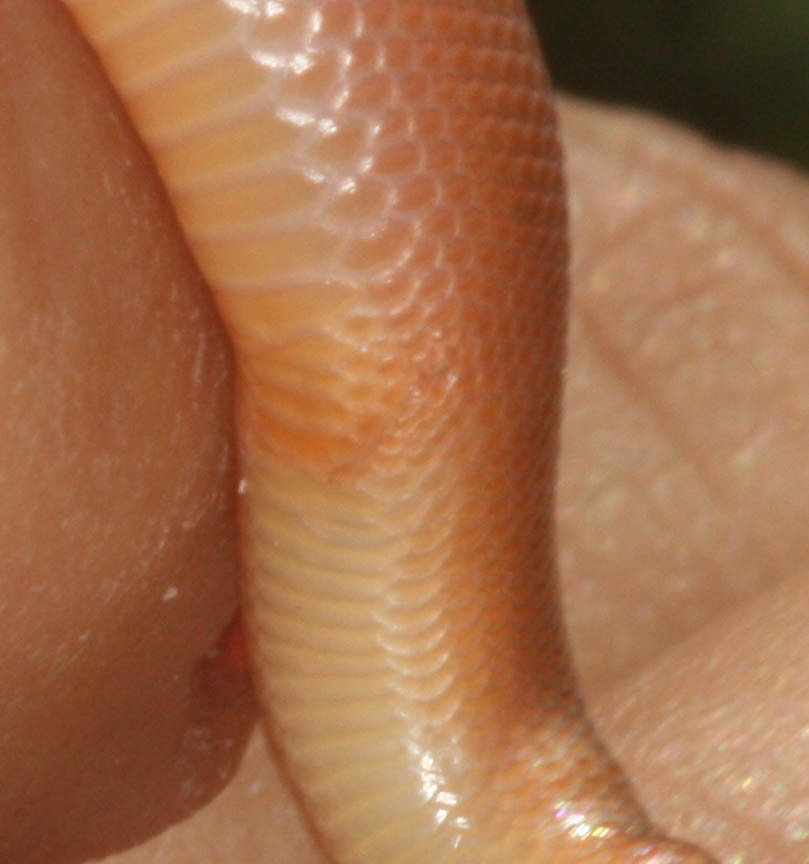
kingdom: Animalia
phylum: Chordata
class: Squamata
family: Boidae
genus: Charina
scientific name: Charina bottae
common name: Northern rubber boa
